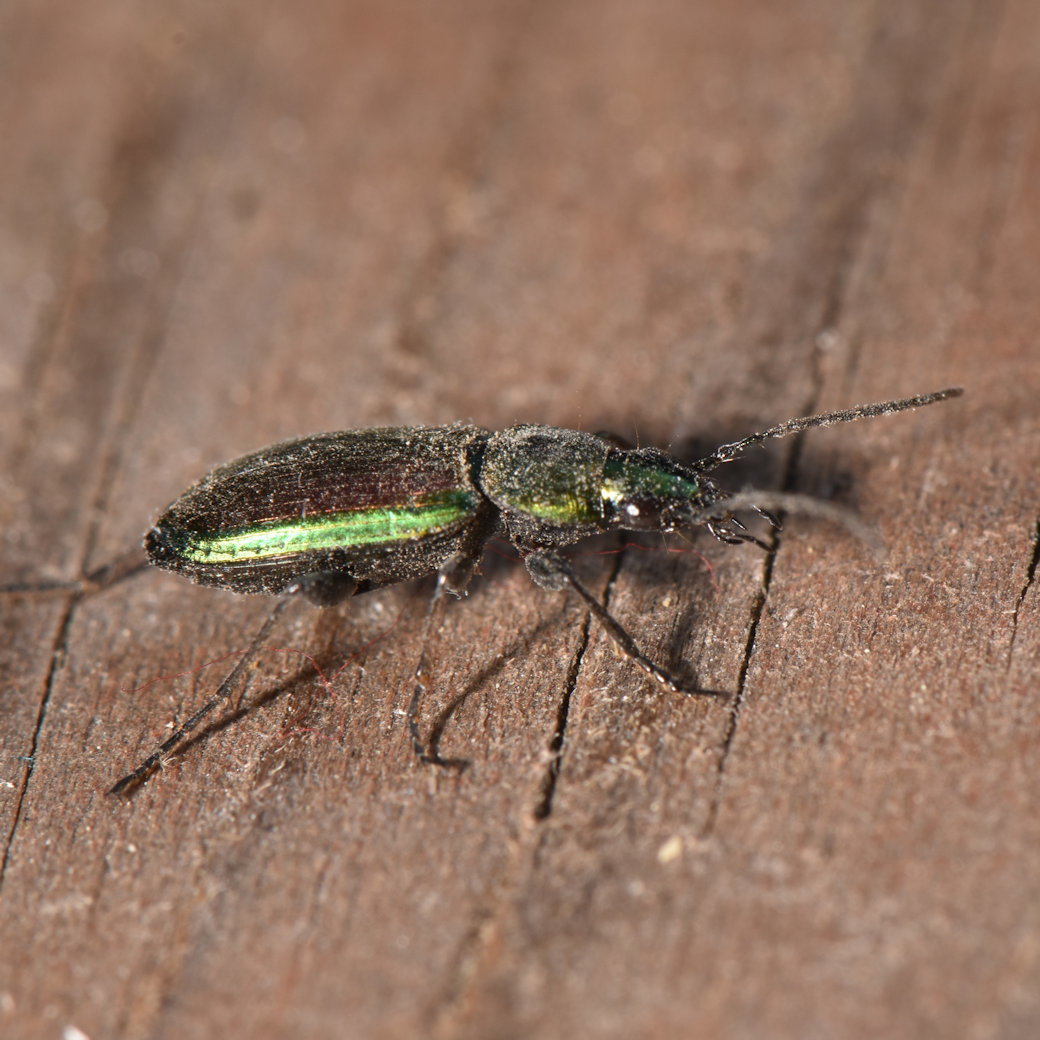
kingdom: Animalia
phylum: Arthropoda
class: Insecta
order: Coleoptera
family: Carabidae
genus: Agonum
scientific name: Agonum cupripenne
